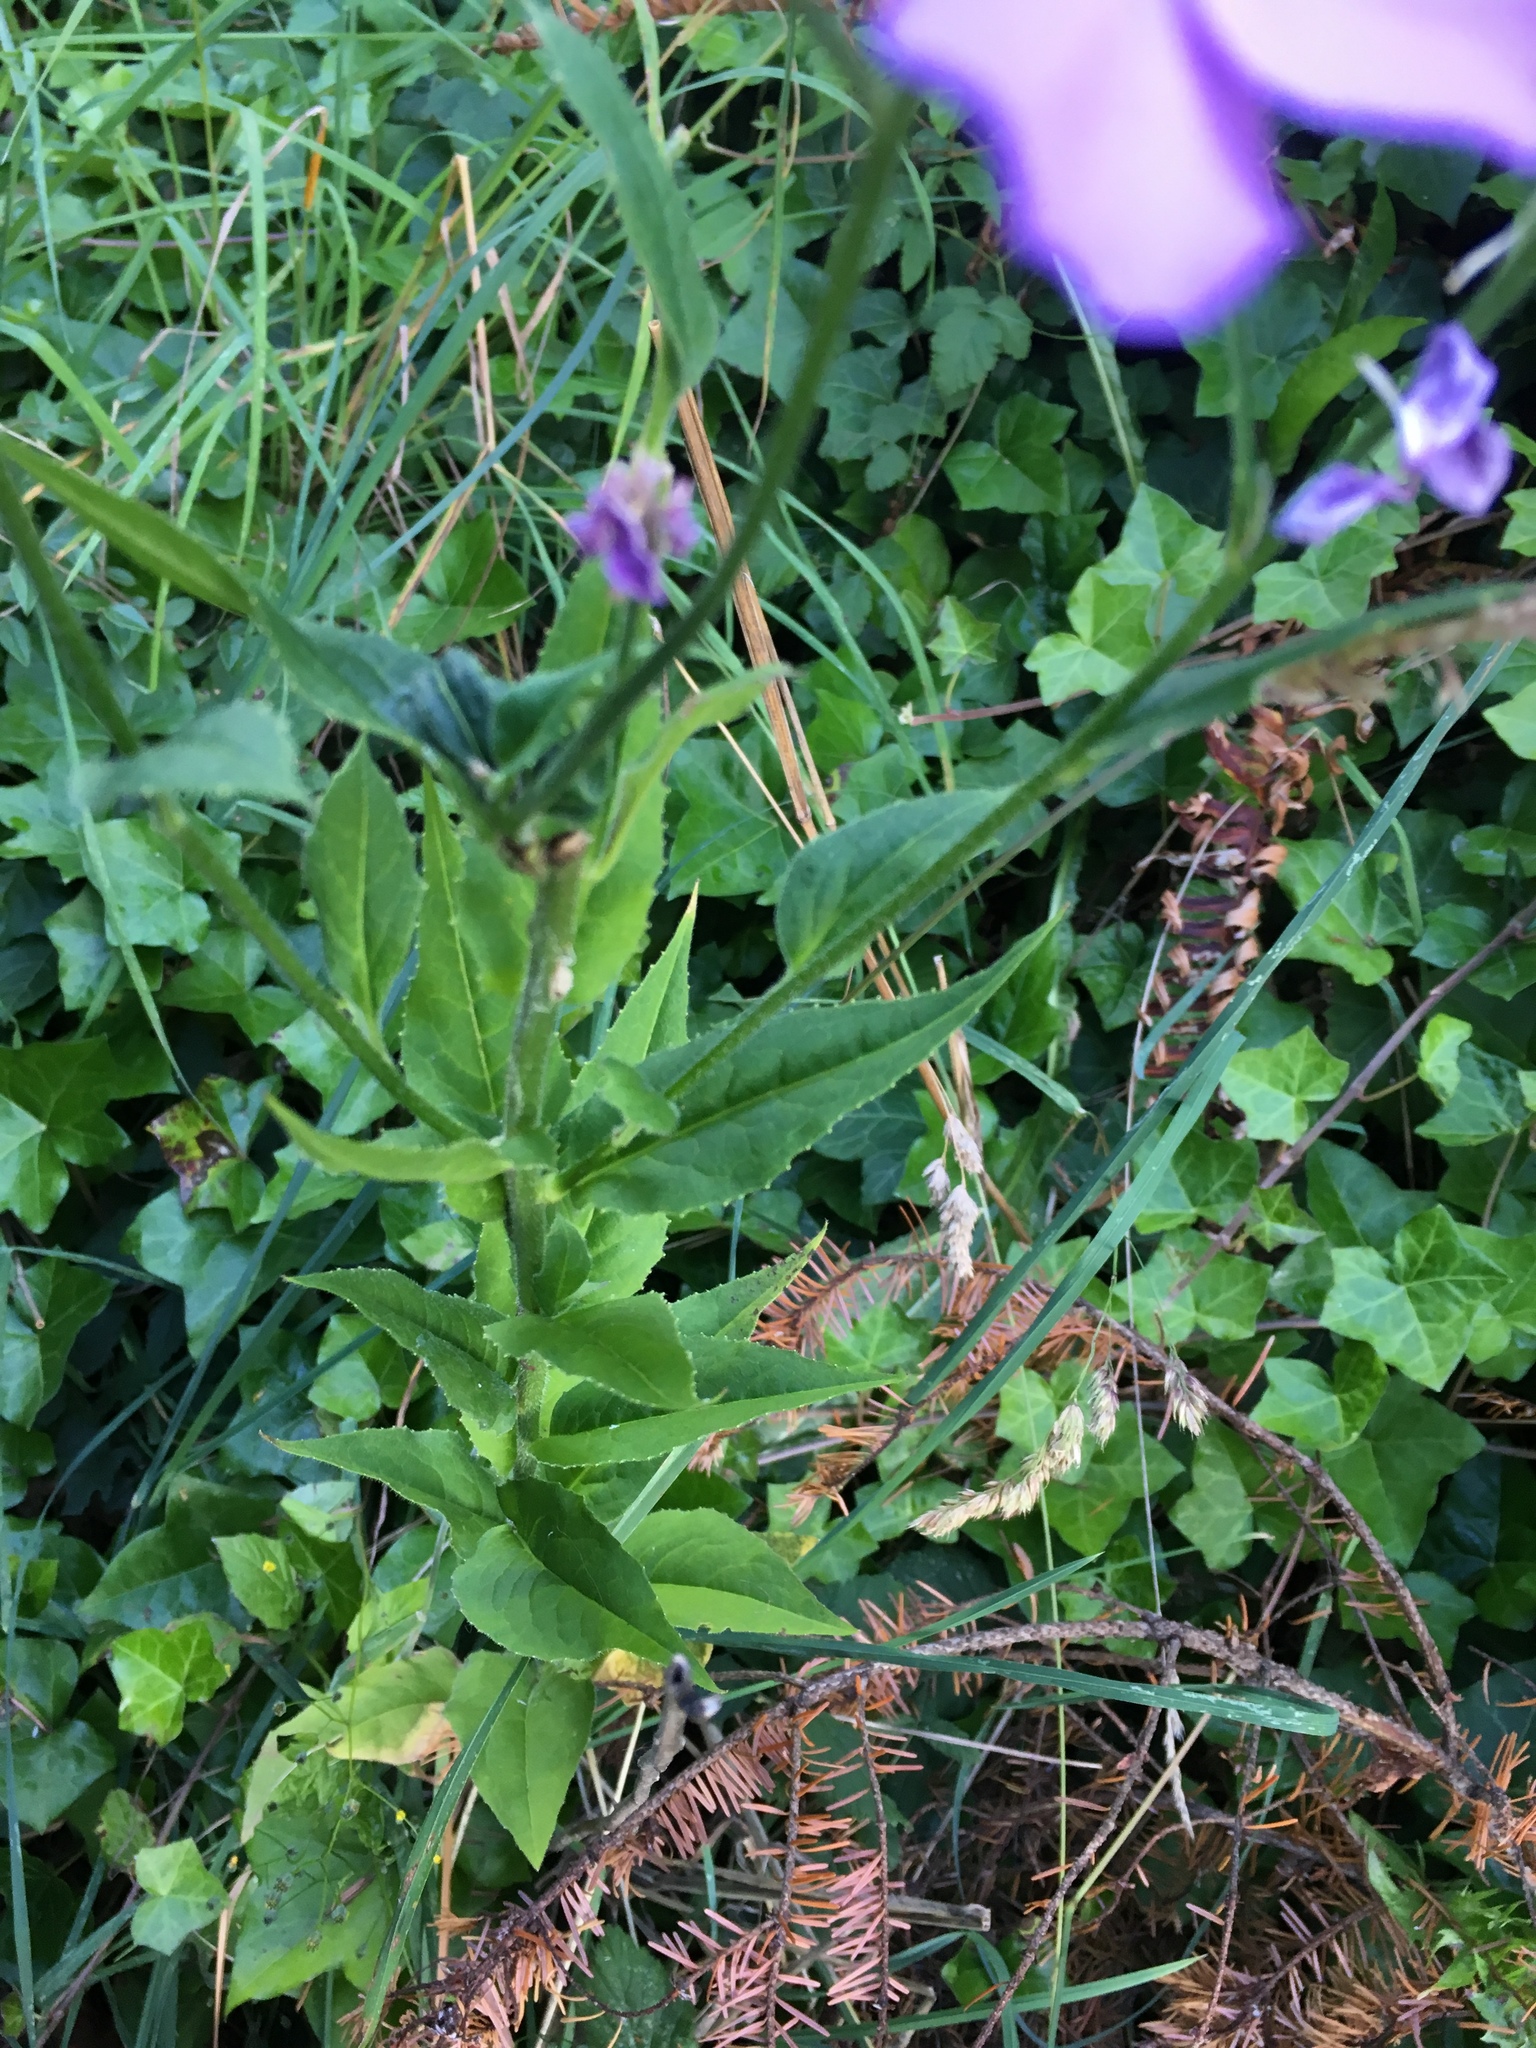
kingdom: Plantae
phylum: Tracheophyta
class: Magnoliopsida
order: Brassicales
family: Brassicaceae
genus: Hesperis
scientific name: Hesperis matronalis
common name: Dame's-violet
